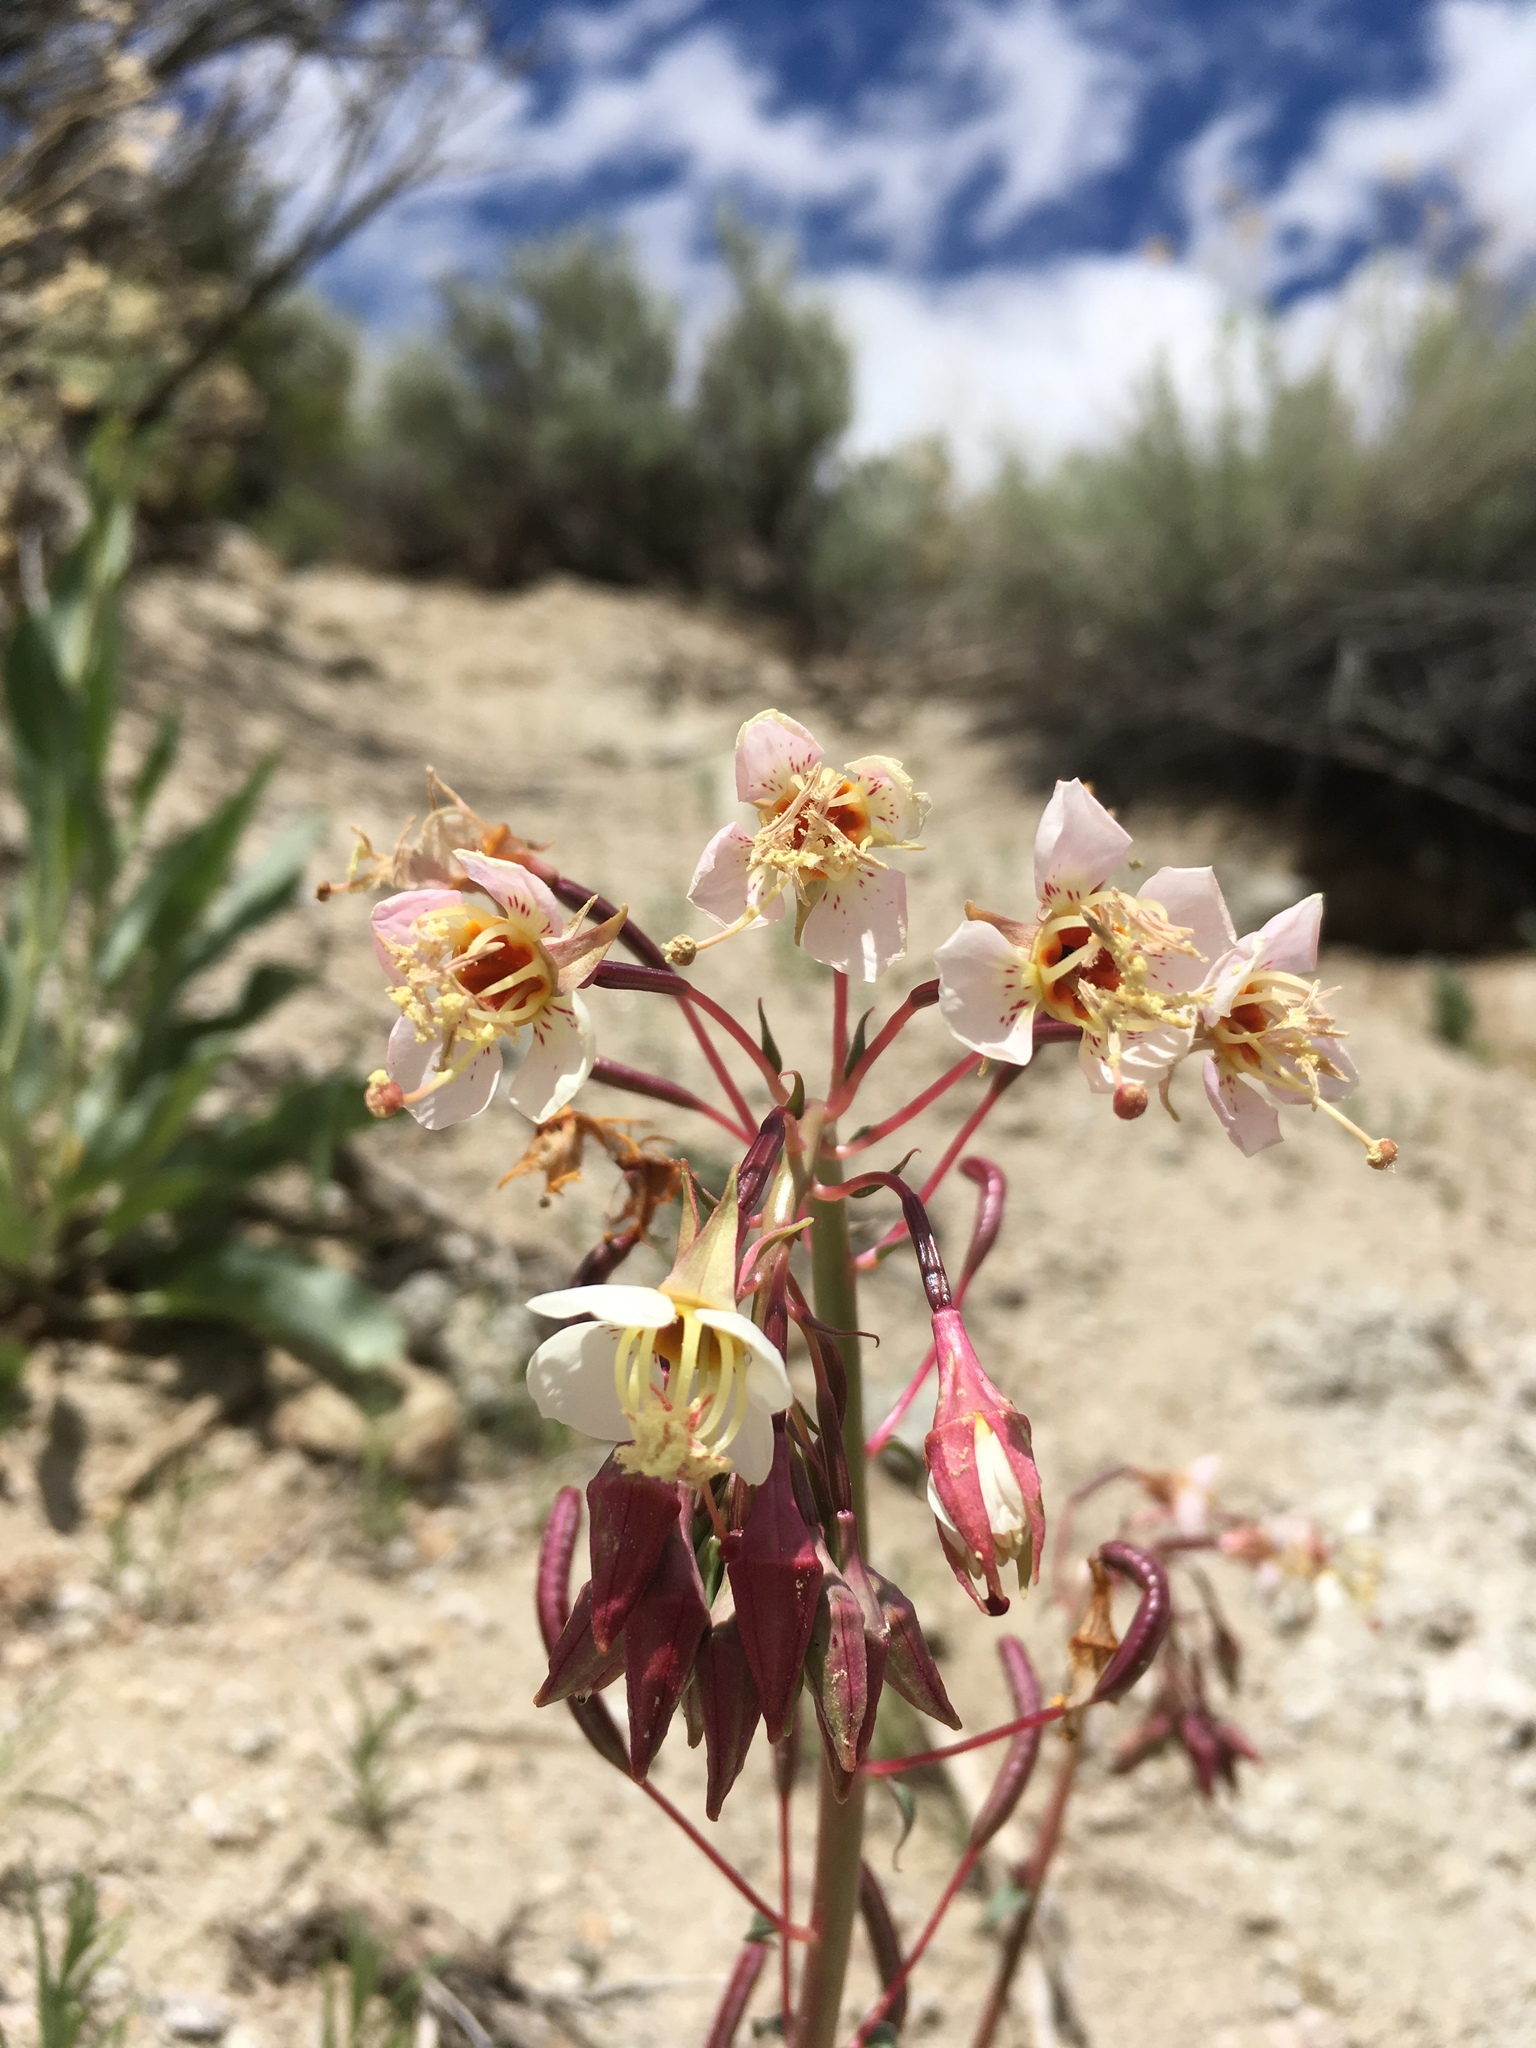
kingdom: Plantae
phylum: Tracheophyta
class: Magnoliopsida
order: Myrtales
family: Onagraceae
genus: Chylismia
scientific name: Chylismia claviformis
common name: Browneyes
